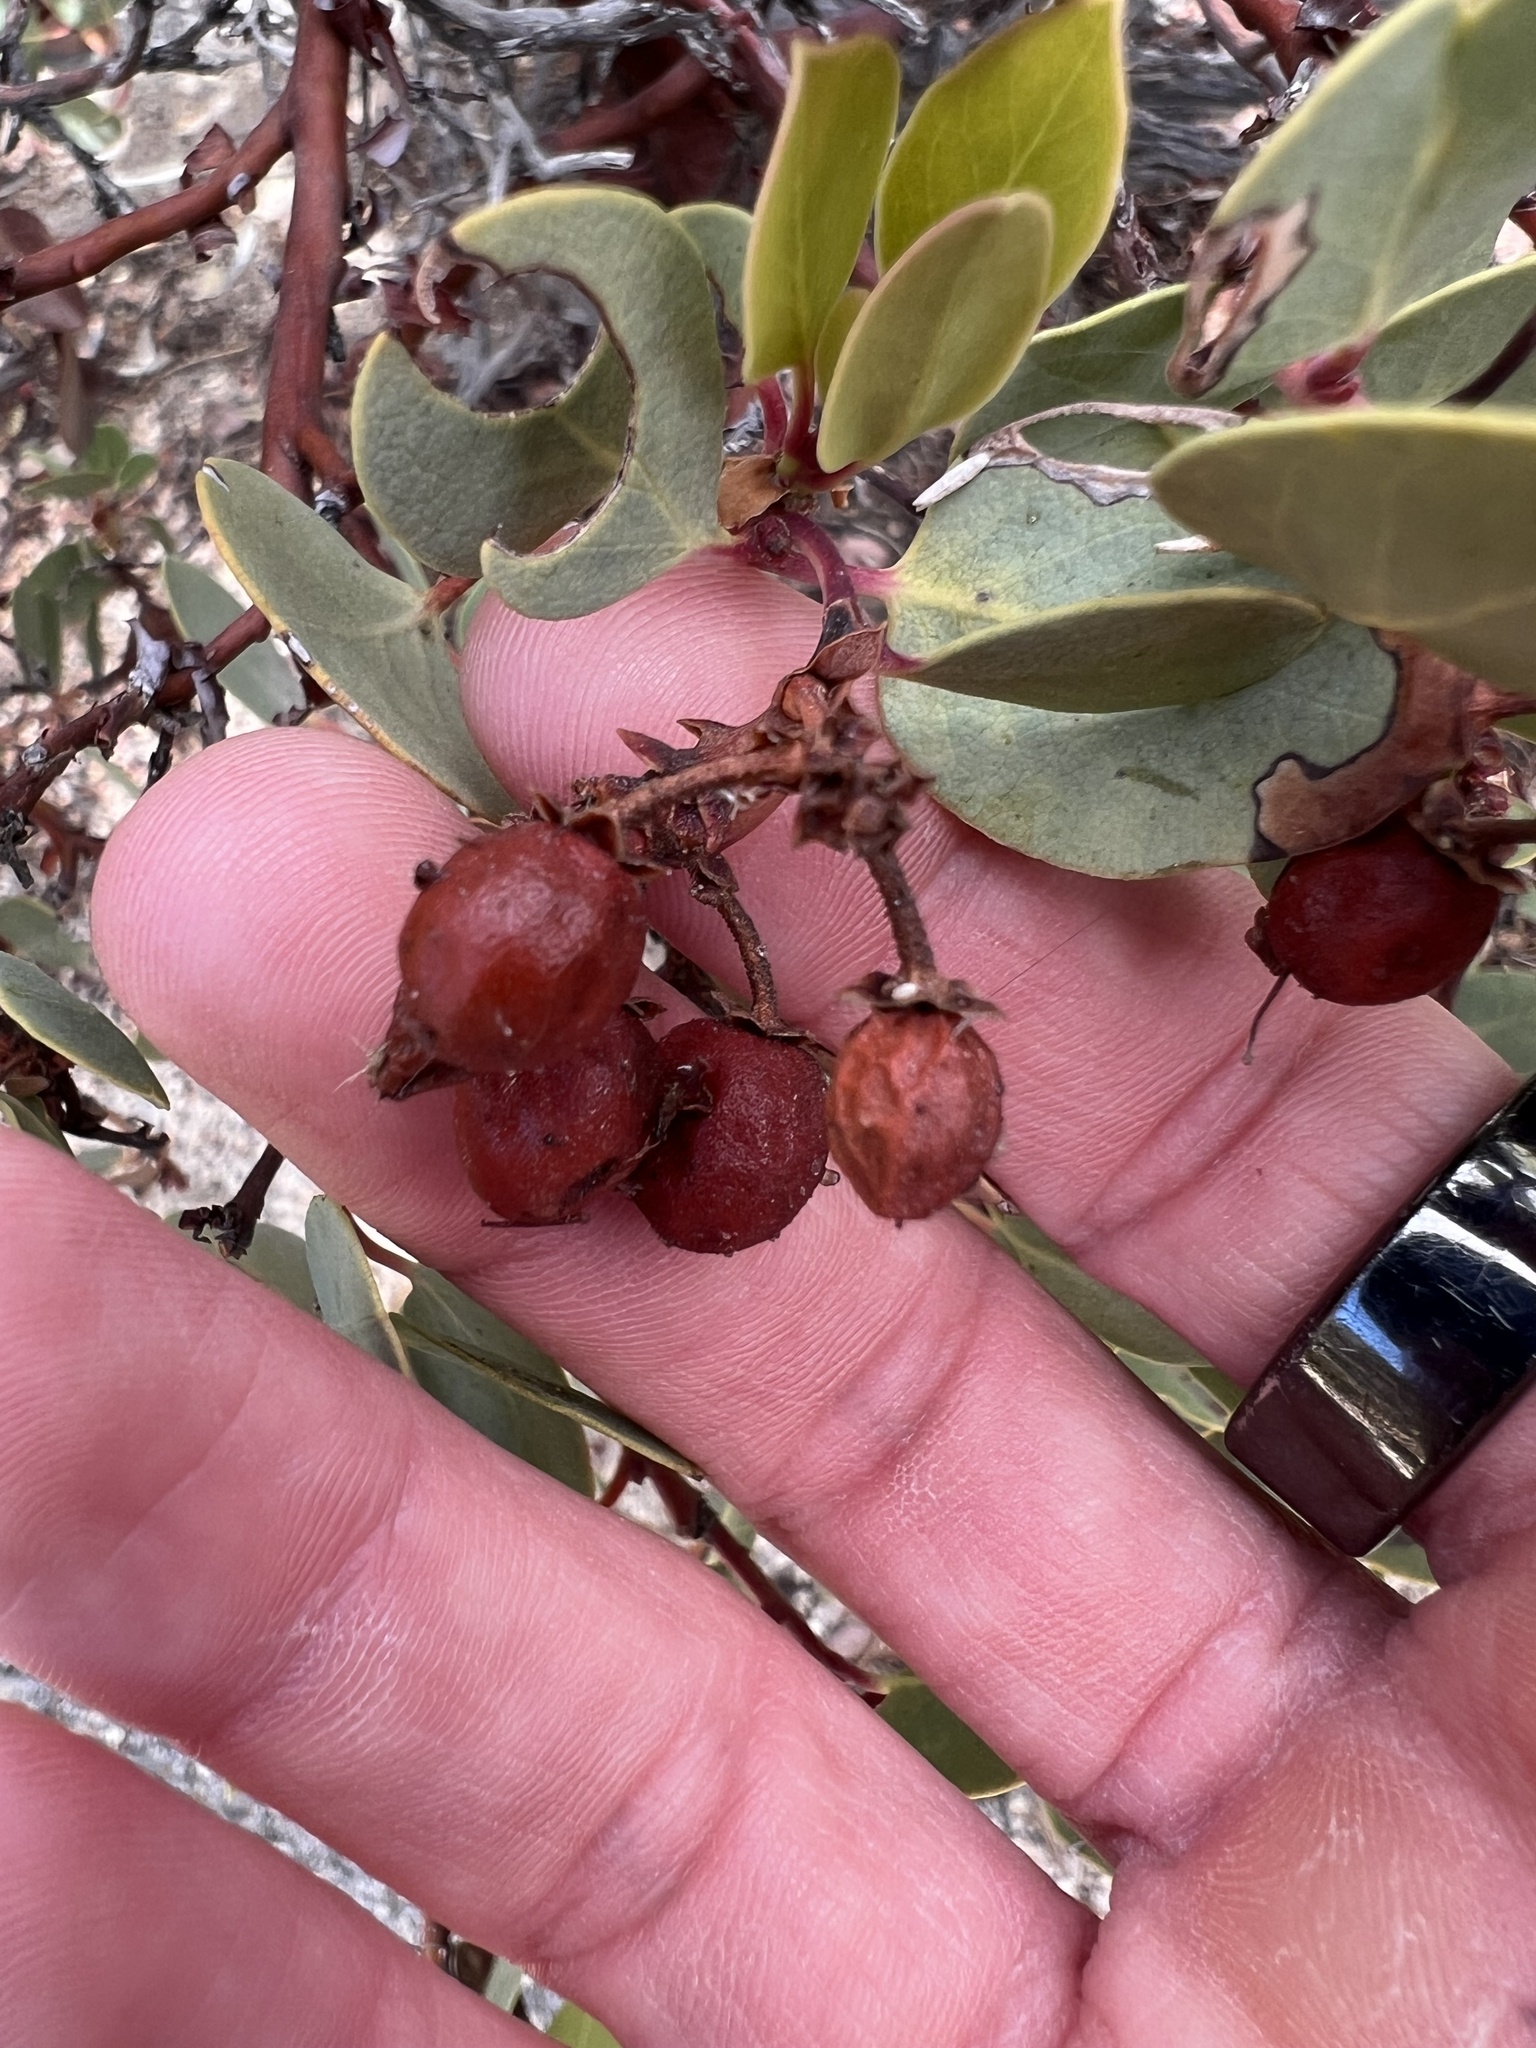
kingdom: Plantae
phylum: Tracheophyta
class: Magnoliopsida
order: Ericales
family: Ericaceae
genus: Arctostaphylos
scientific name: Arctostaphylos glauca
